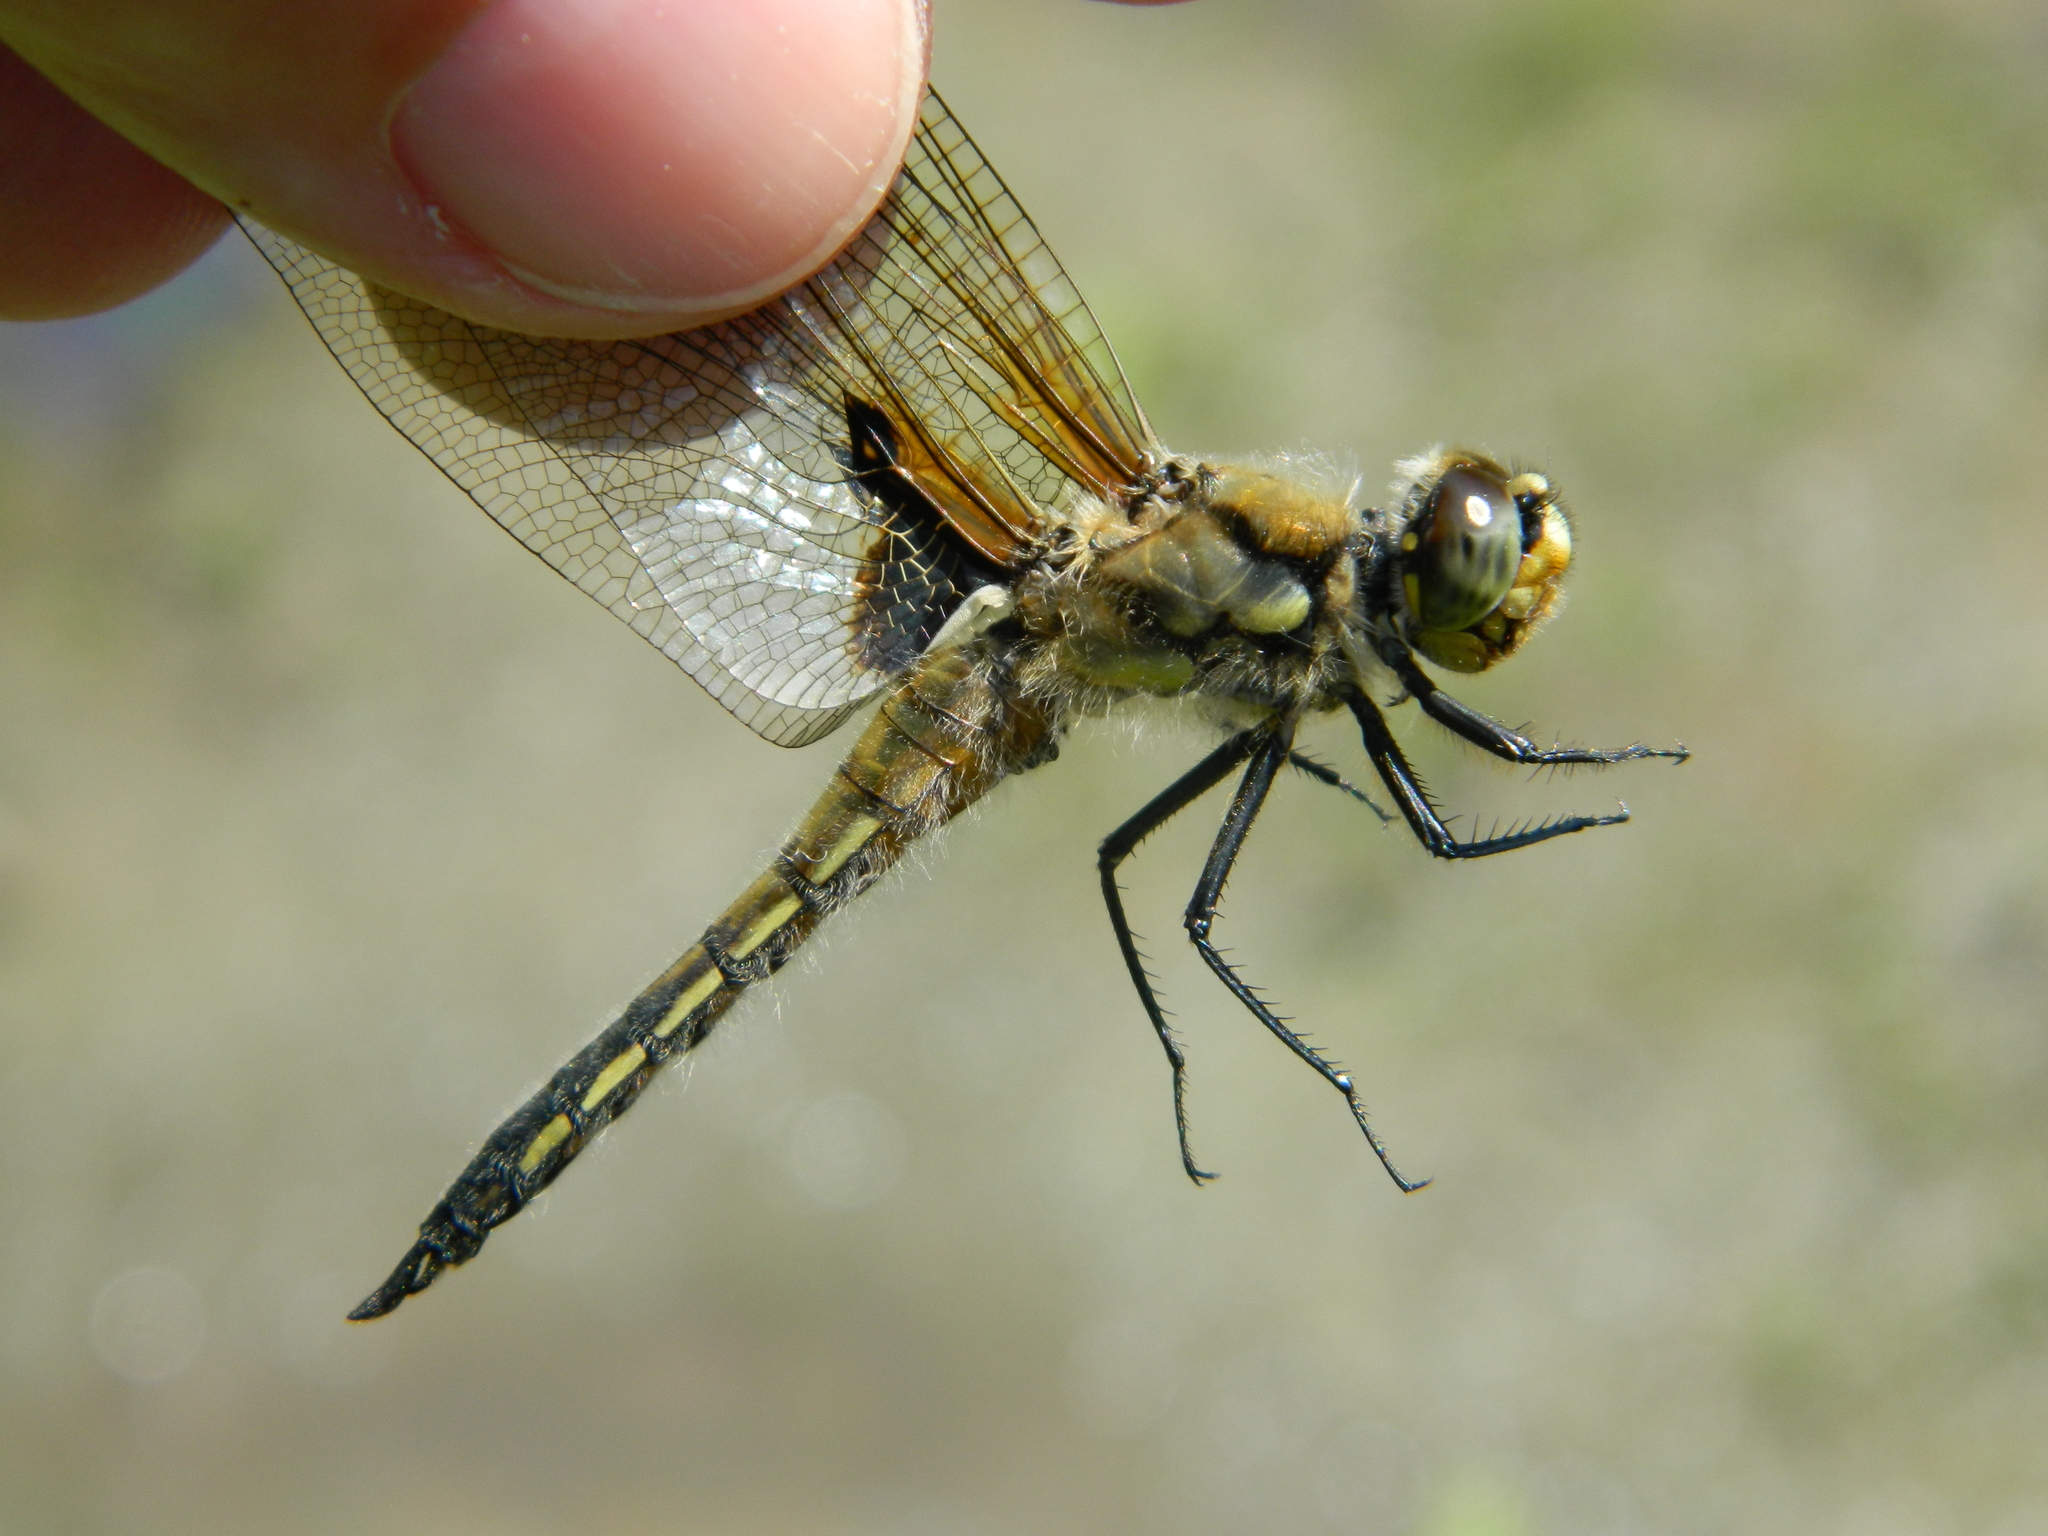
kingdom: Animalia
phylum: Arthropoda
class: Insecta
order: Odonata
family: Libellulidae
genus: Libellula
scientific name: Libellula quadrimaculata
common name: Four-spotted chaser
